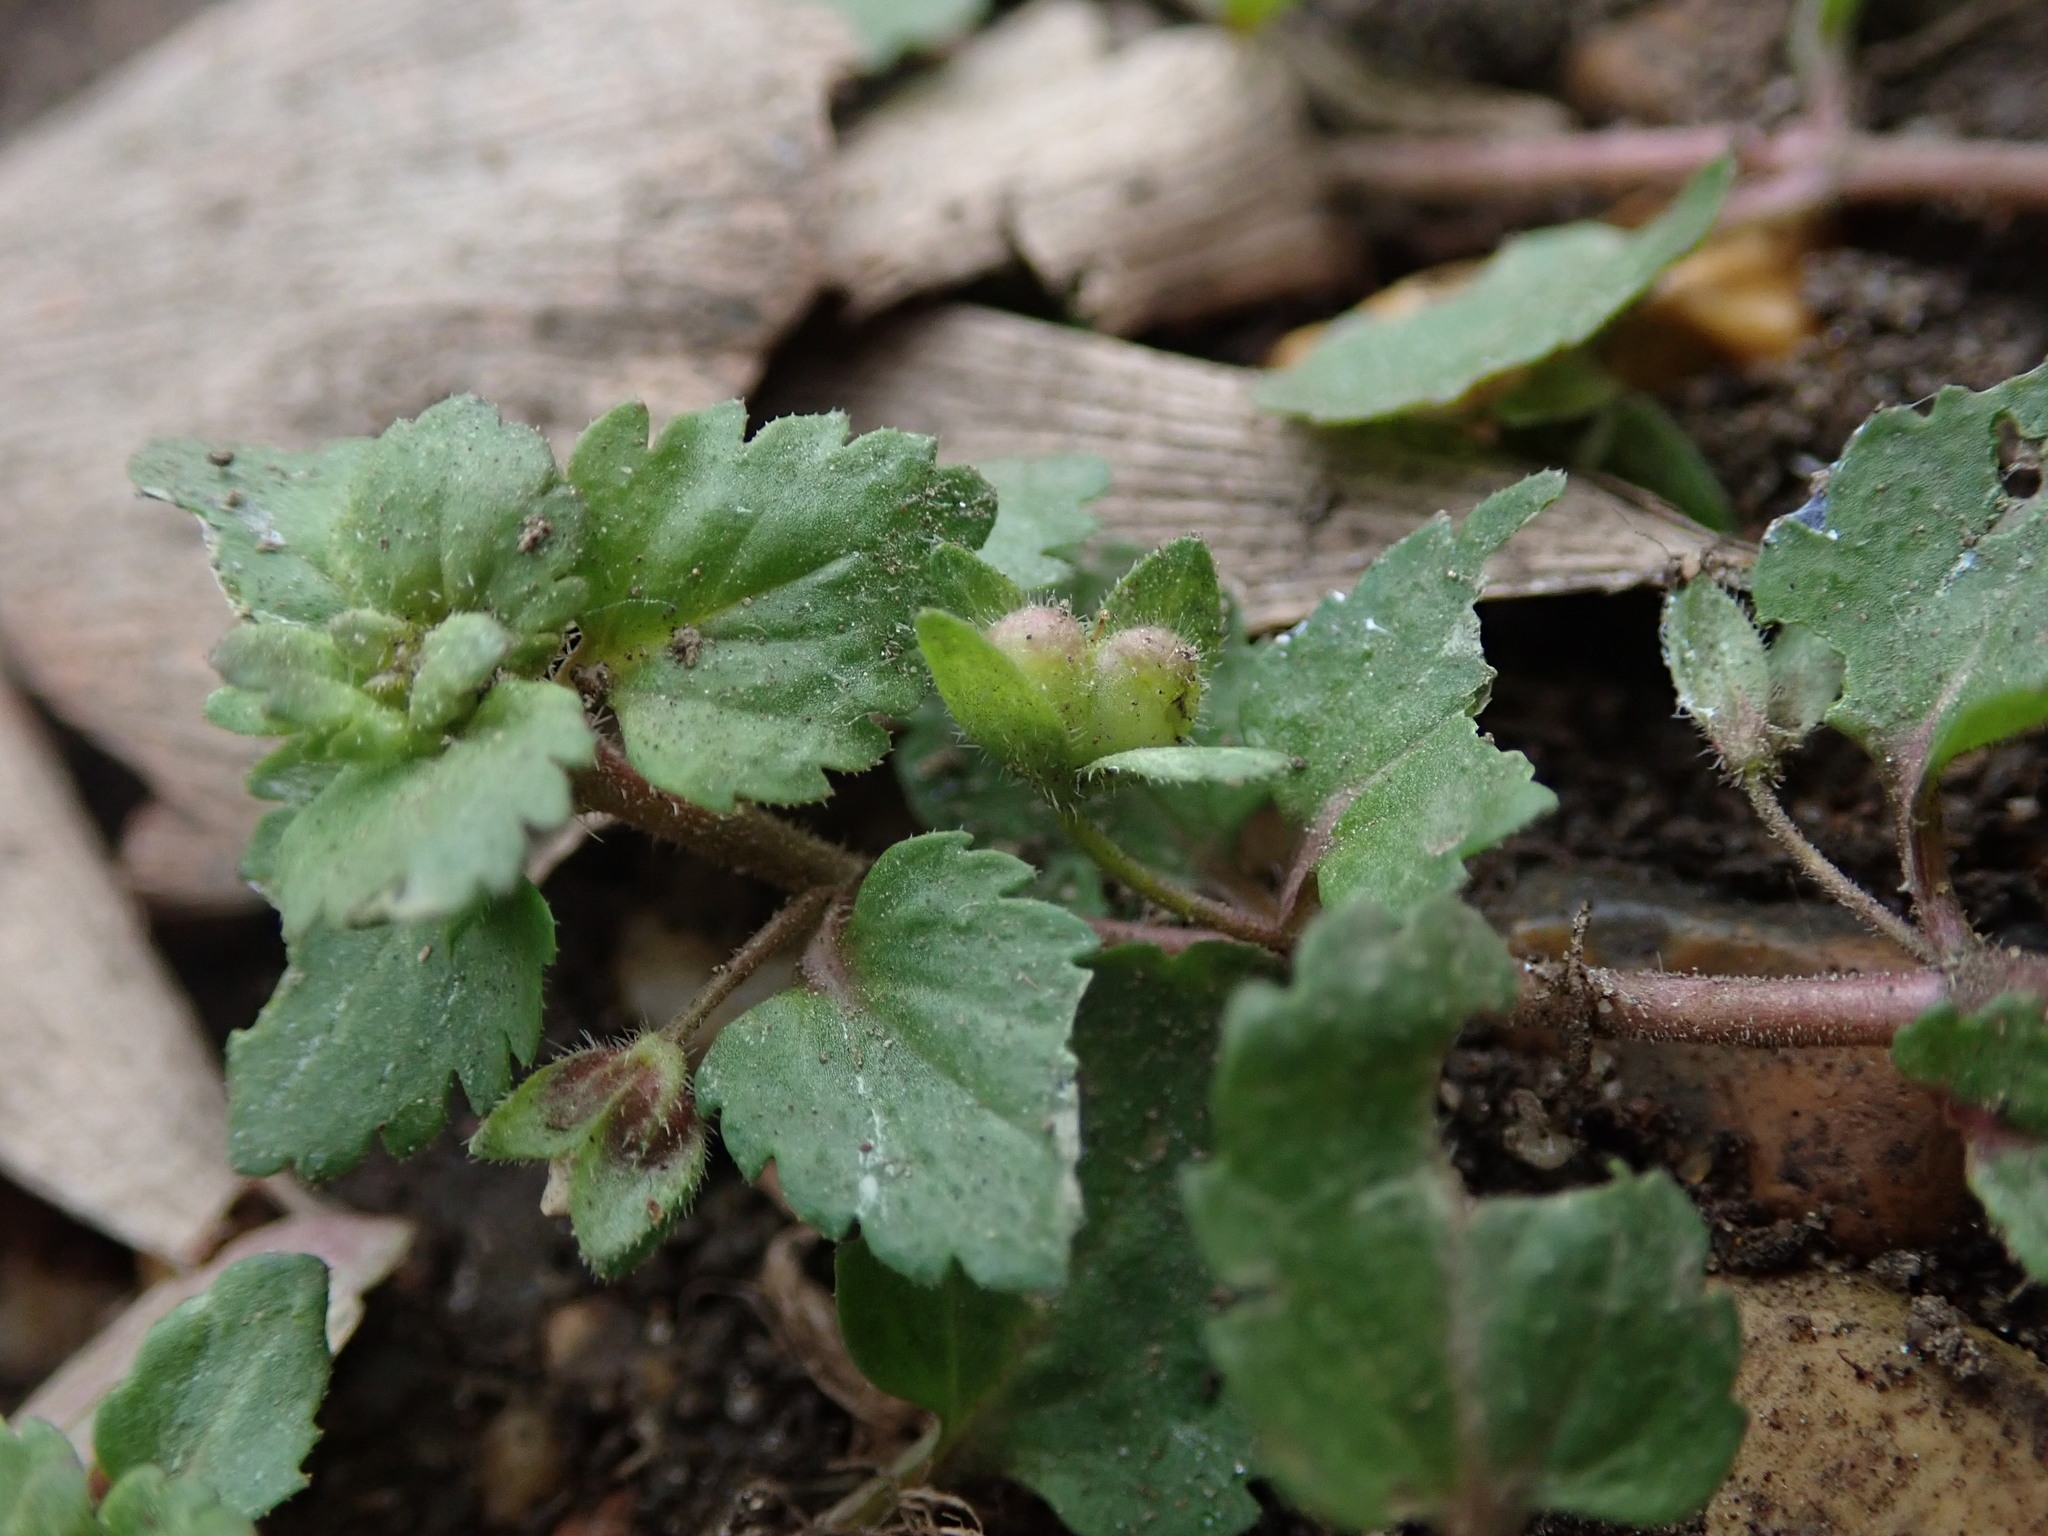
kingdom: Plantae
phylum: Tracheophyta
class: Magnoliopsida
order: Lamiales
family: Plantaginaceae
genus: Veronica
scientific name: Veronica agrestis
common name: Green field-speedwell
